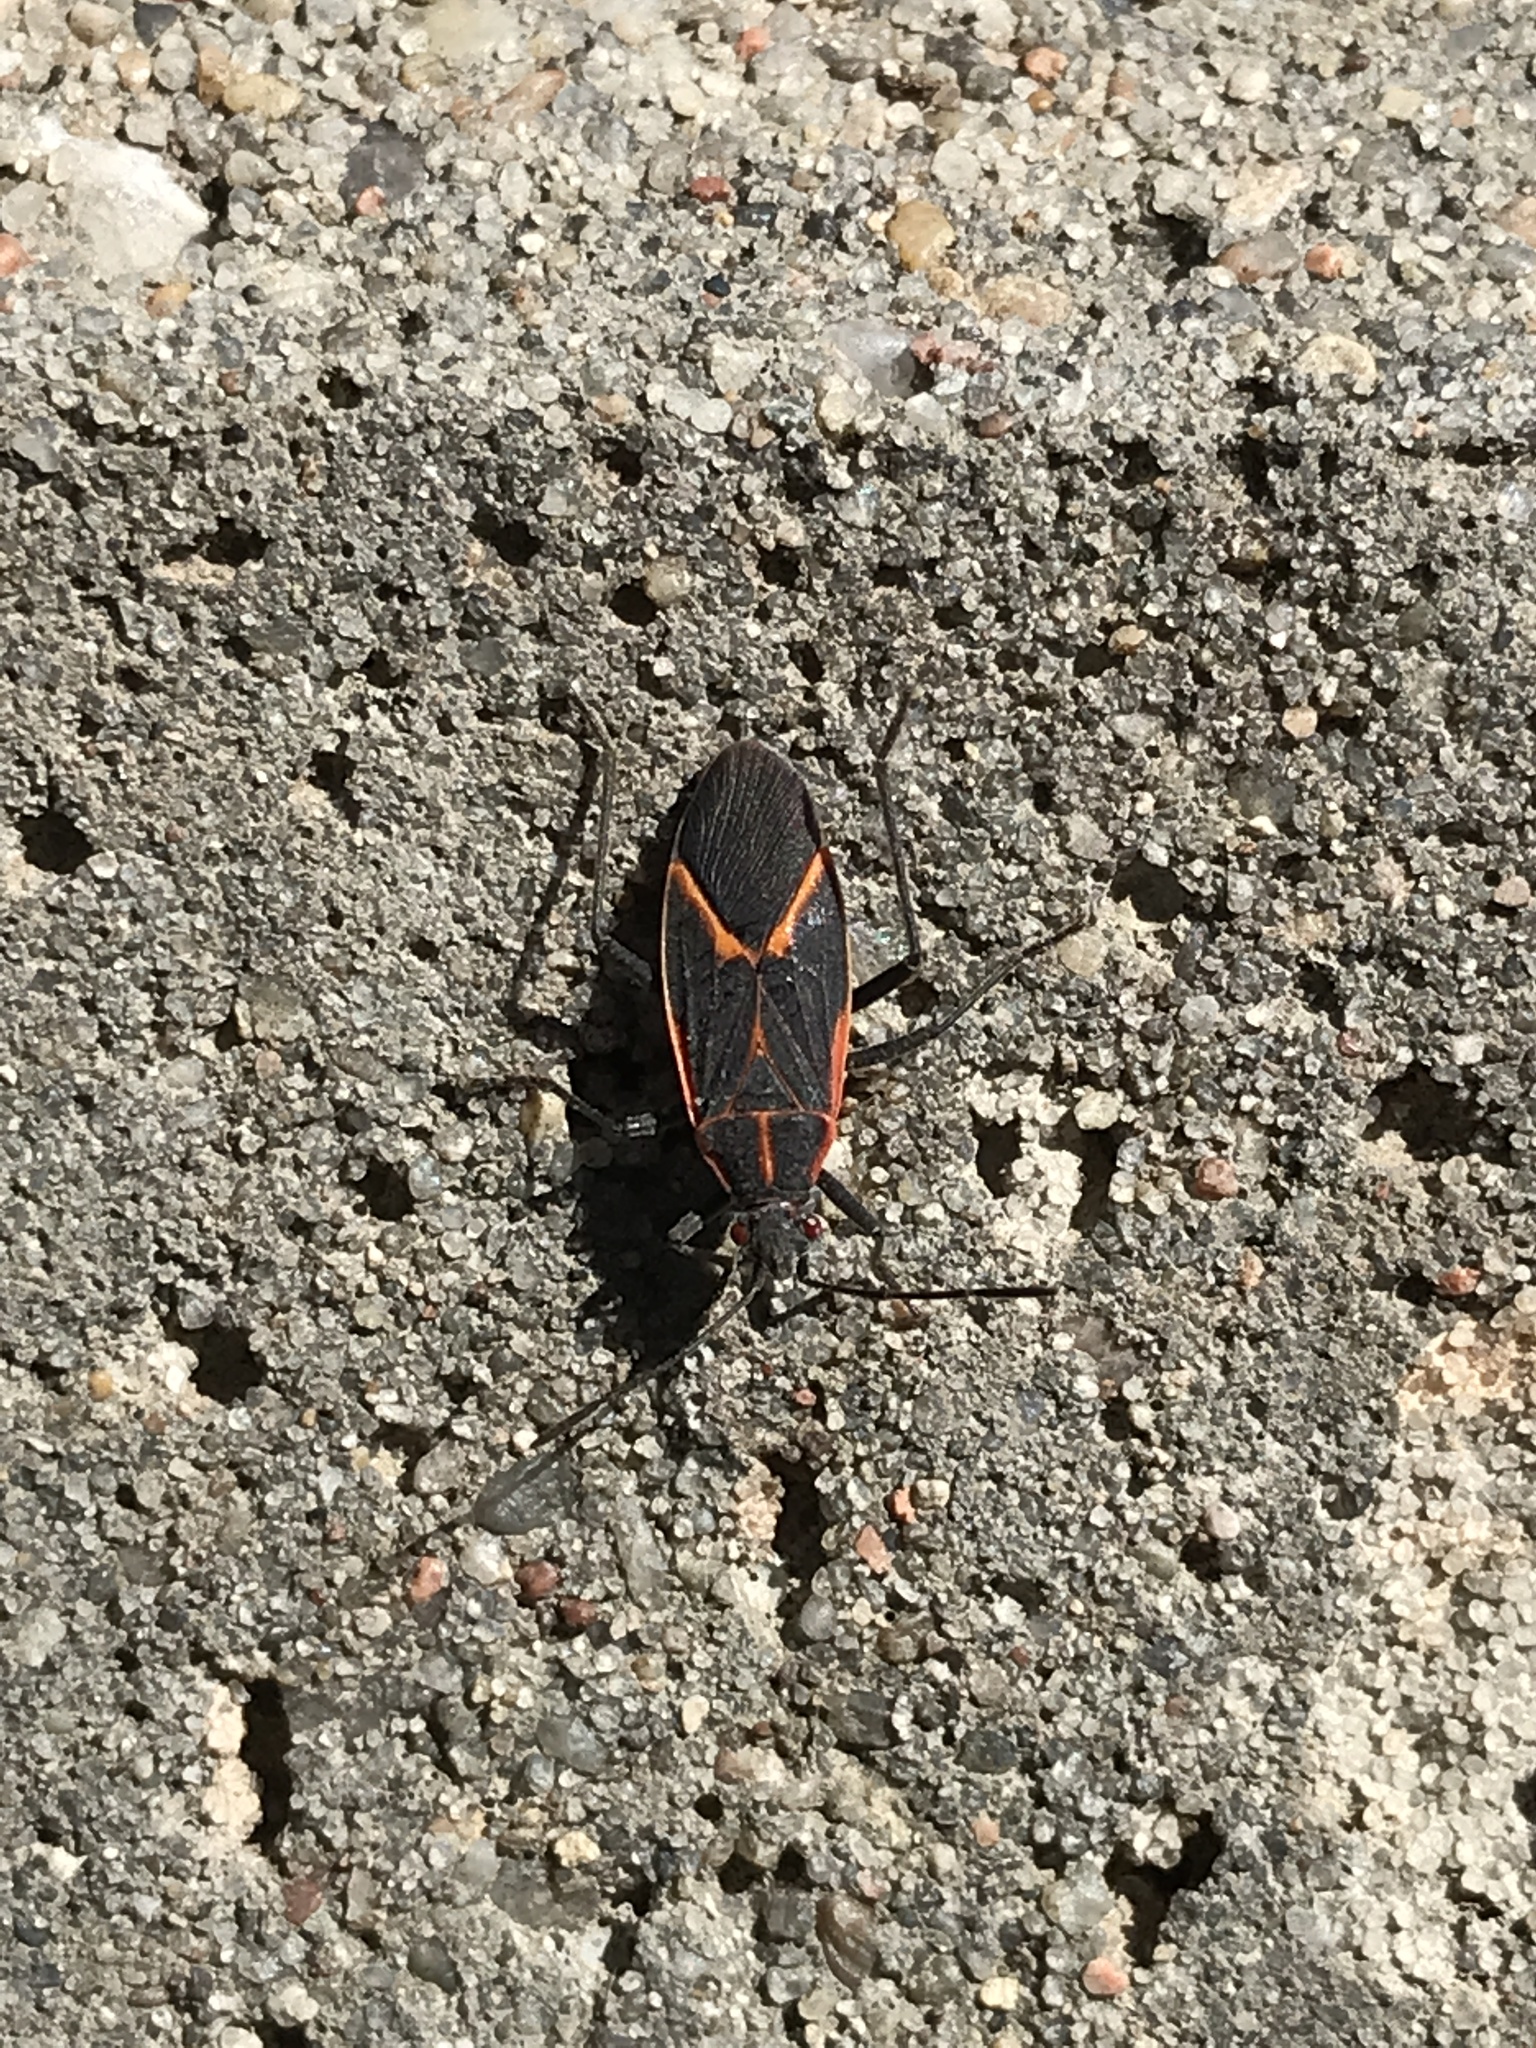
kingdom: Animalia
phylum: Arthropoda
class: Insecta
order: Hemiptera
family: Rhopalidae
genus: Boisea
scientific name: Boisea trivittata
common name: Boxelder bug
